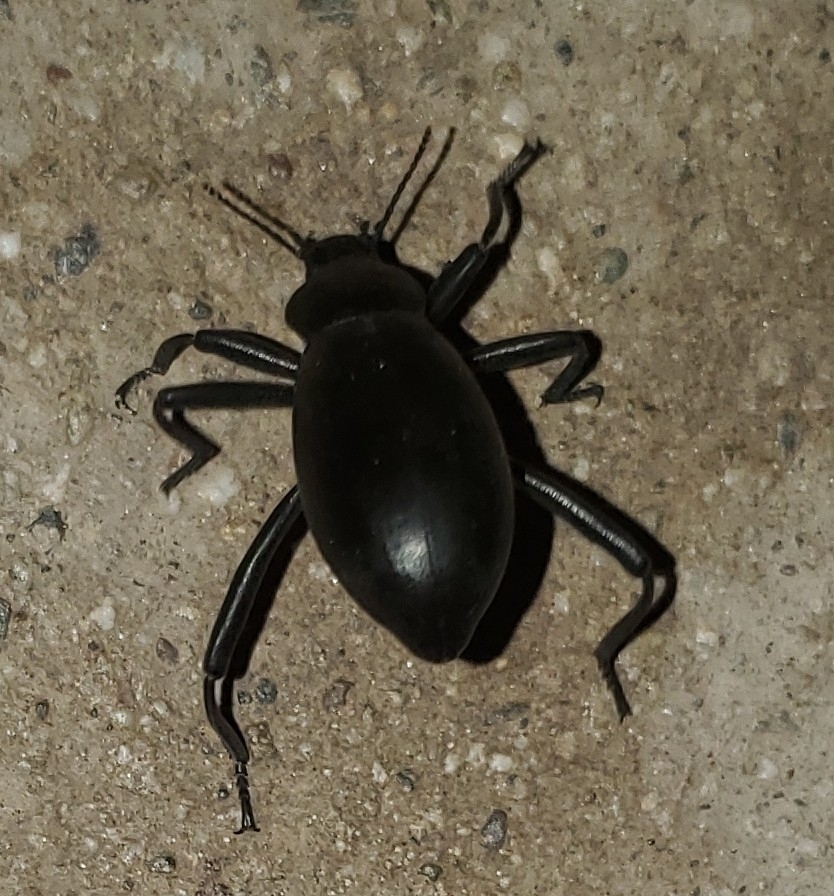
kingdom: Animalia
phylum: Arthropoda
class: Insecta
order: Coleoptera
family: Tenebrionidae
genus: Eleodes
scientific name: Eleodes armata
